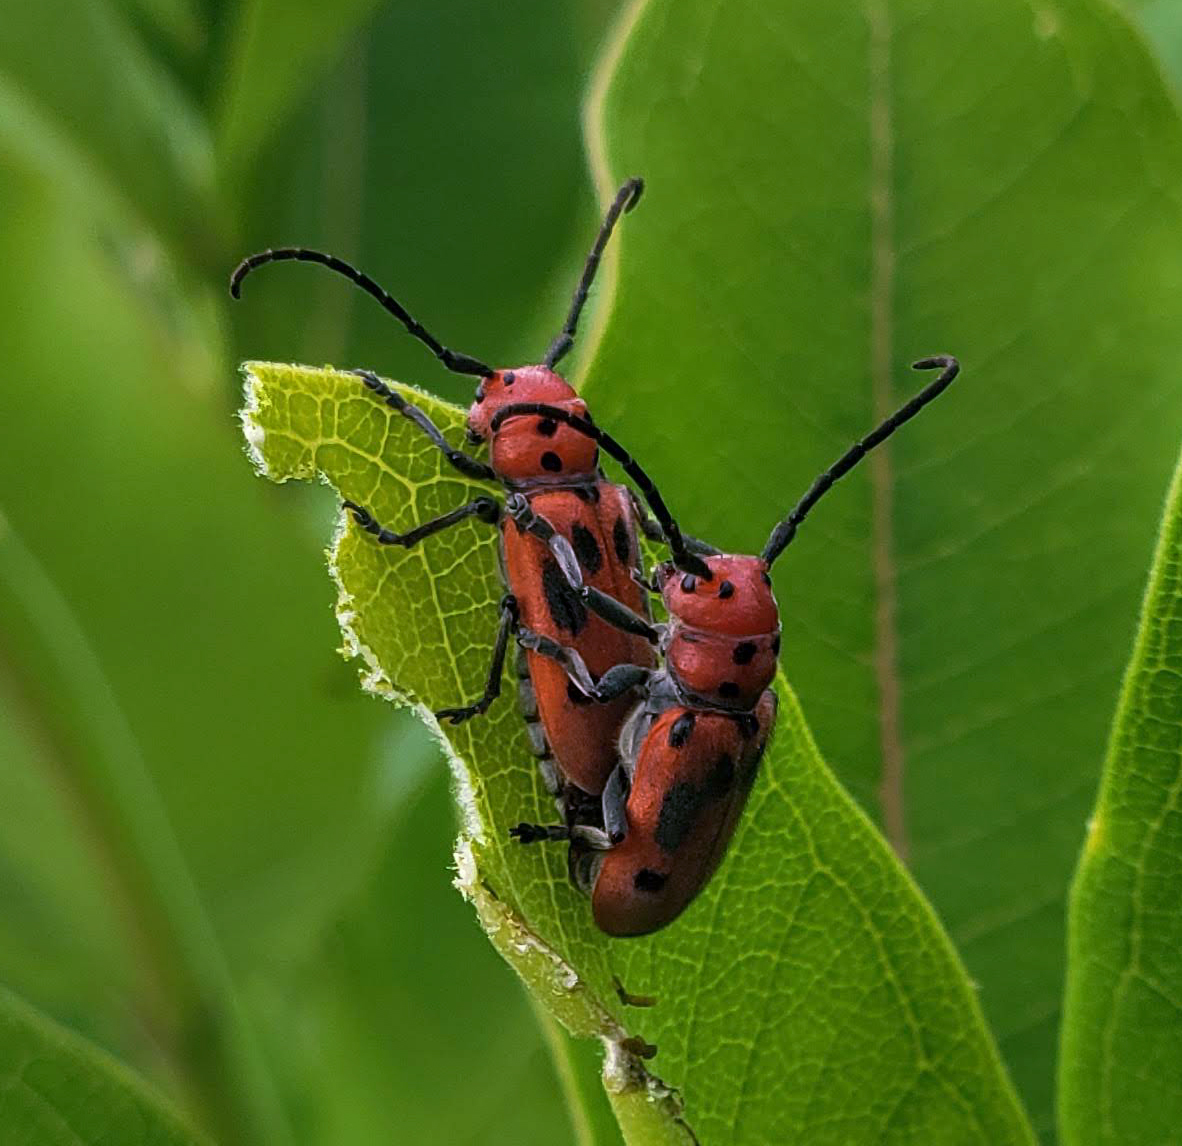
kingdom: Animalia
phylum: Arthropoda
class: Insecta
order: Coleoptera
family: Cerambycidae
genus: Tetraopes
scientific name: Tetraopes tetrophthalmus
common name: Red milkweed beetle
